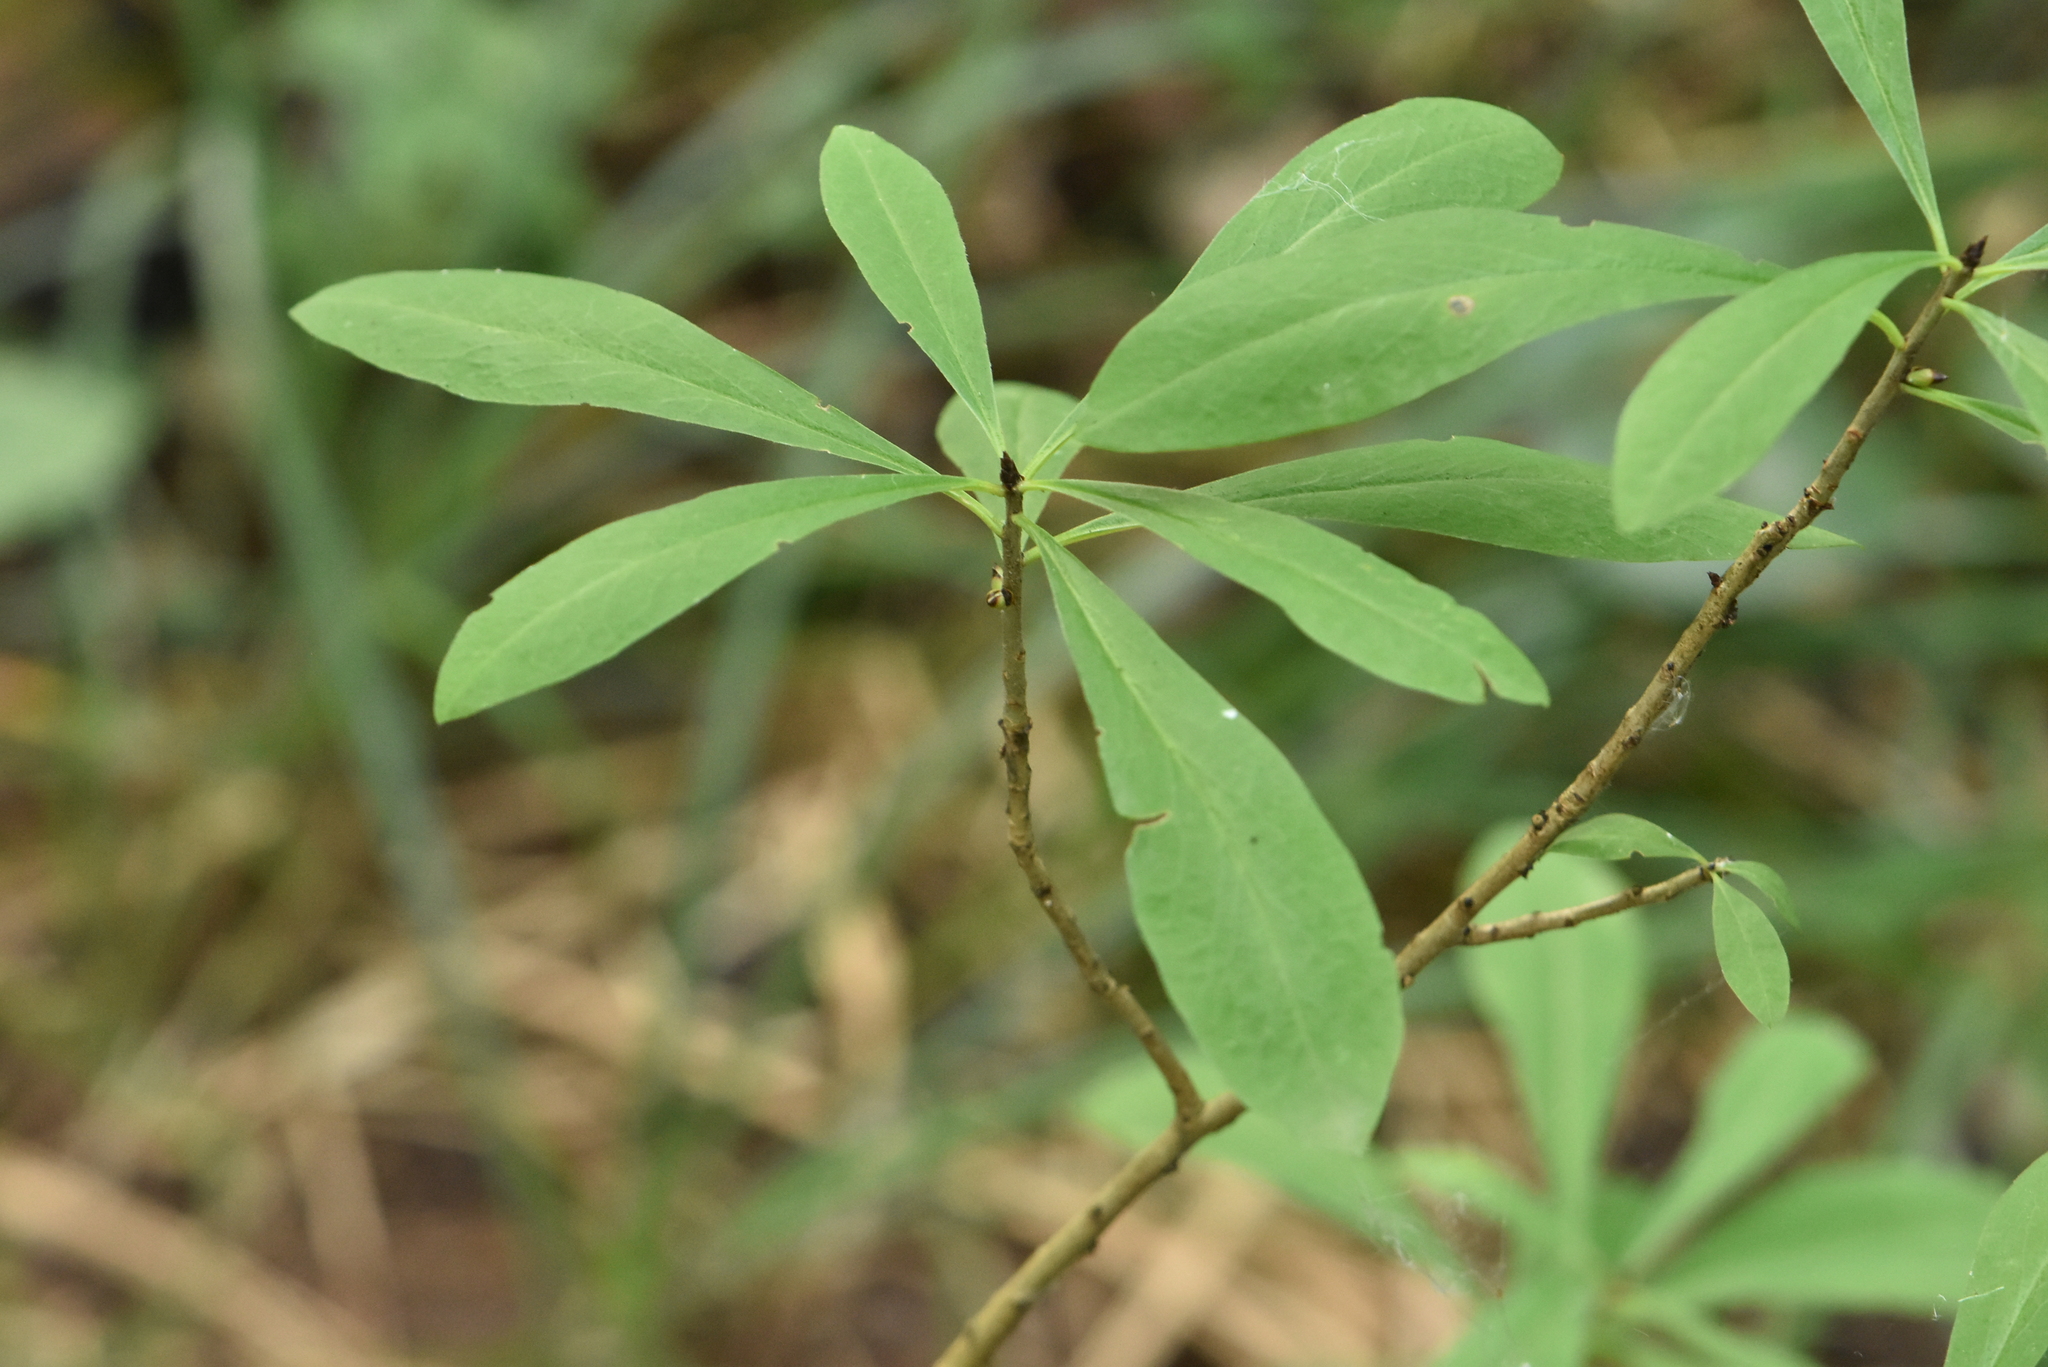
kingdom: Plantae
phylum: Tracheophyta
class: Magnoliopsida
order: Malvales
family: Thymelaeaceae
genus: Daphne
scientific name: Daphne mezereum
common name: Mezereon
